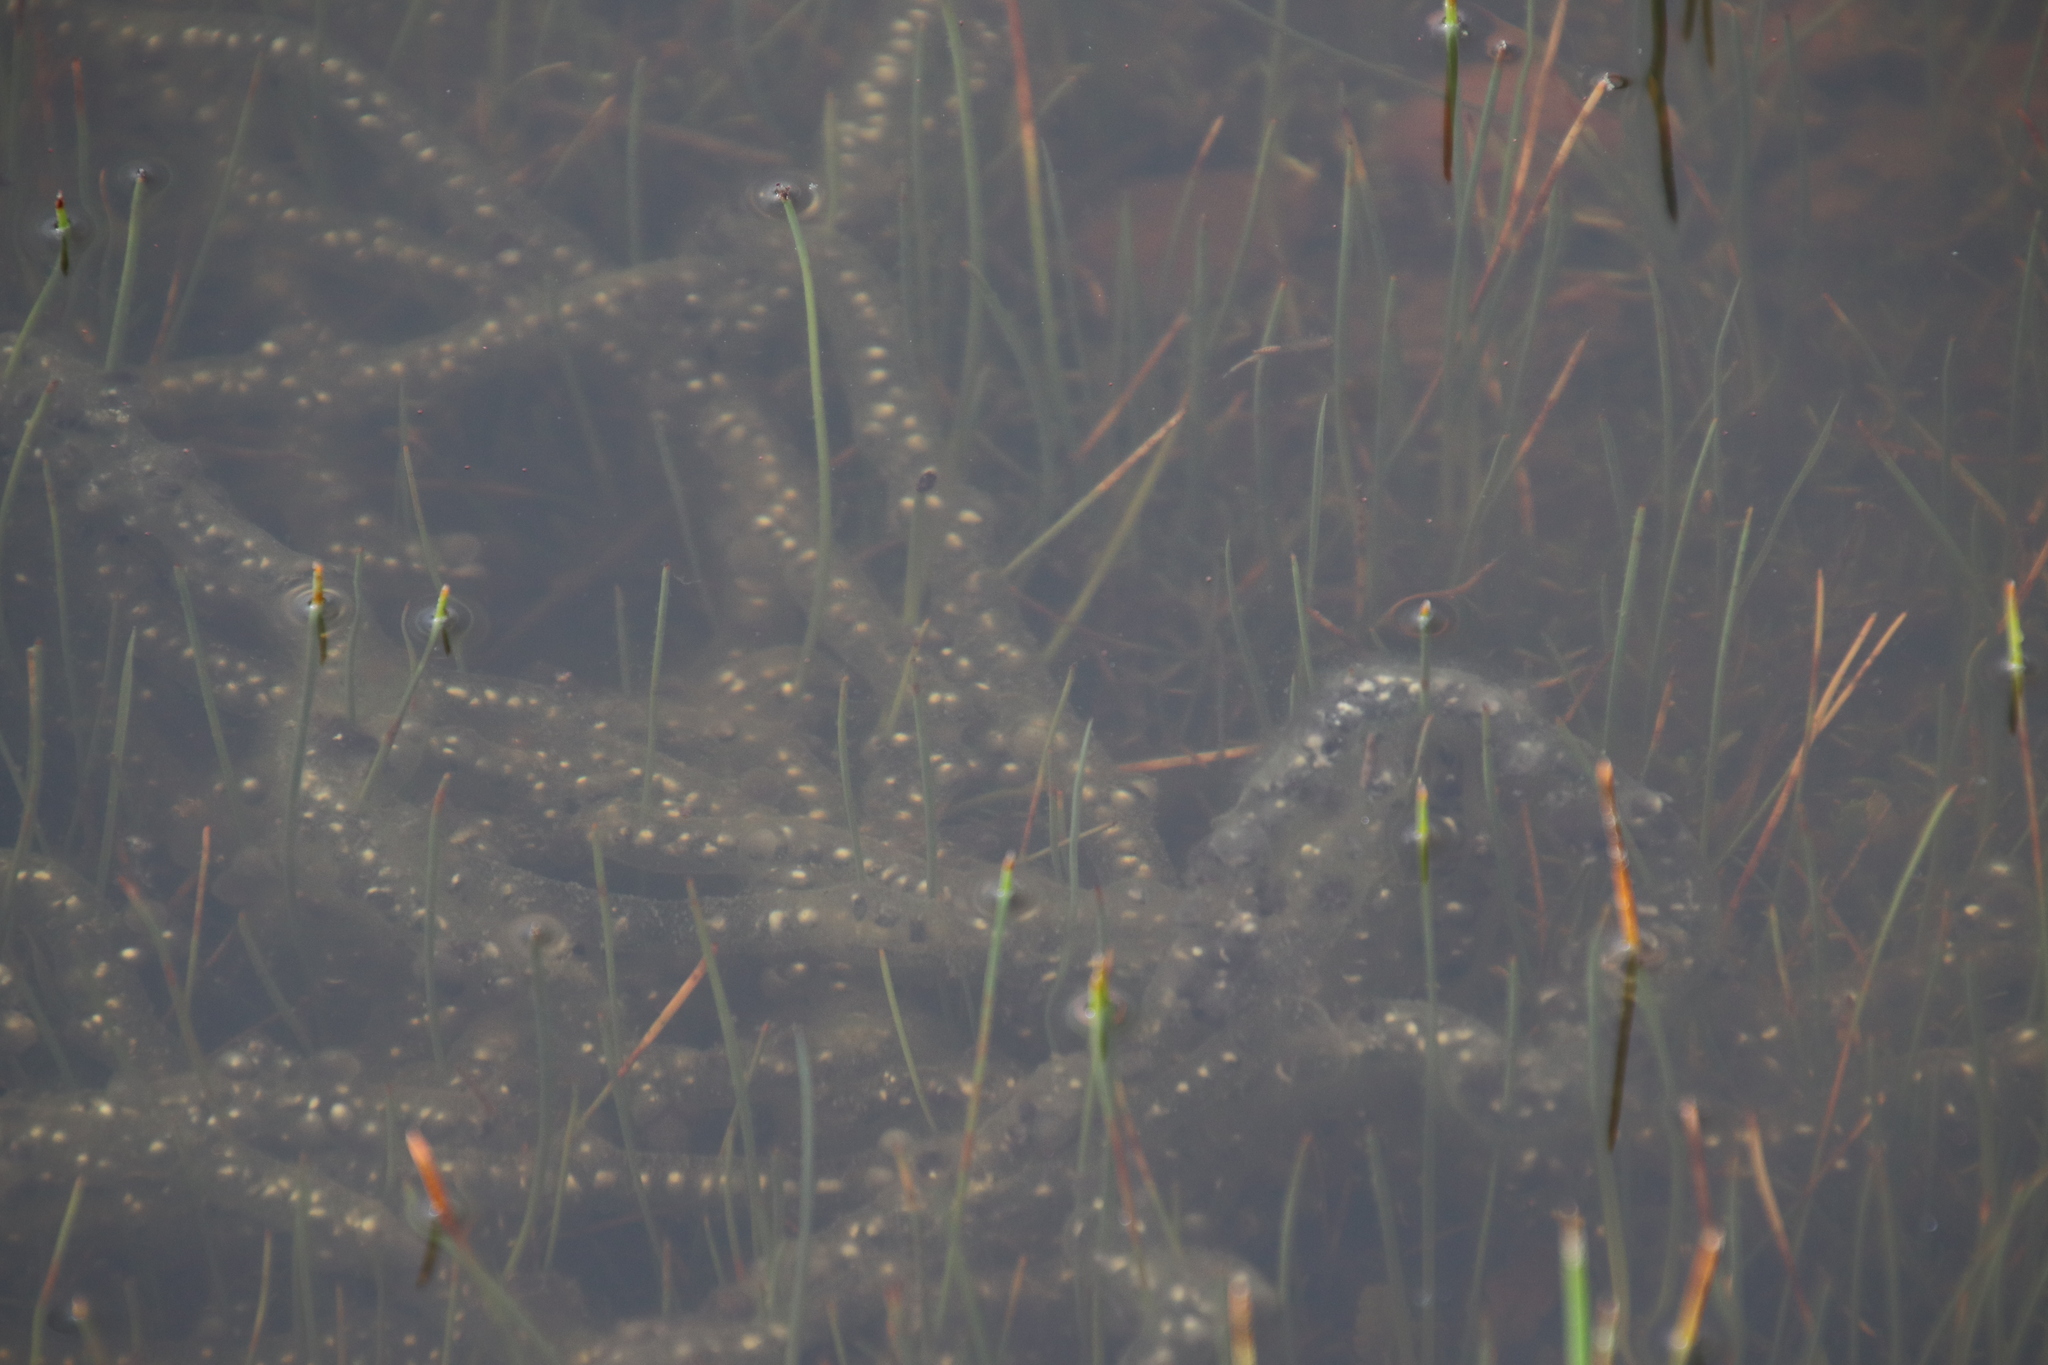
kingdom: Animalia
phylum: Chordata
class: Amphibia
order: Anura
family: Bufonidae
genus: Anaxyrus
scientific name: Anaxyrus boreas
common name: Western toad
